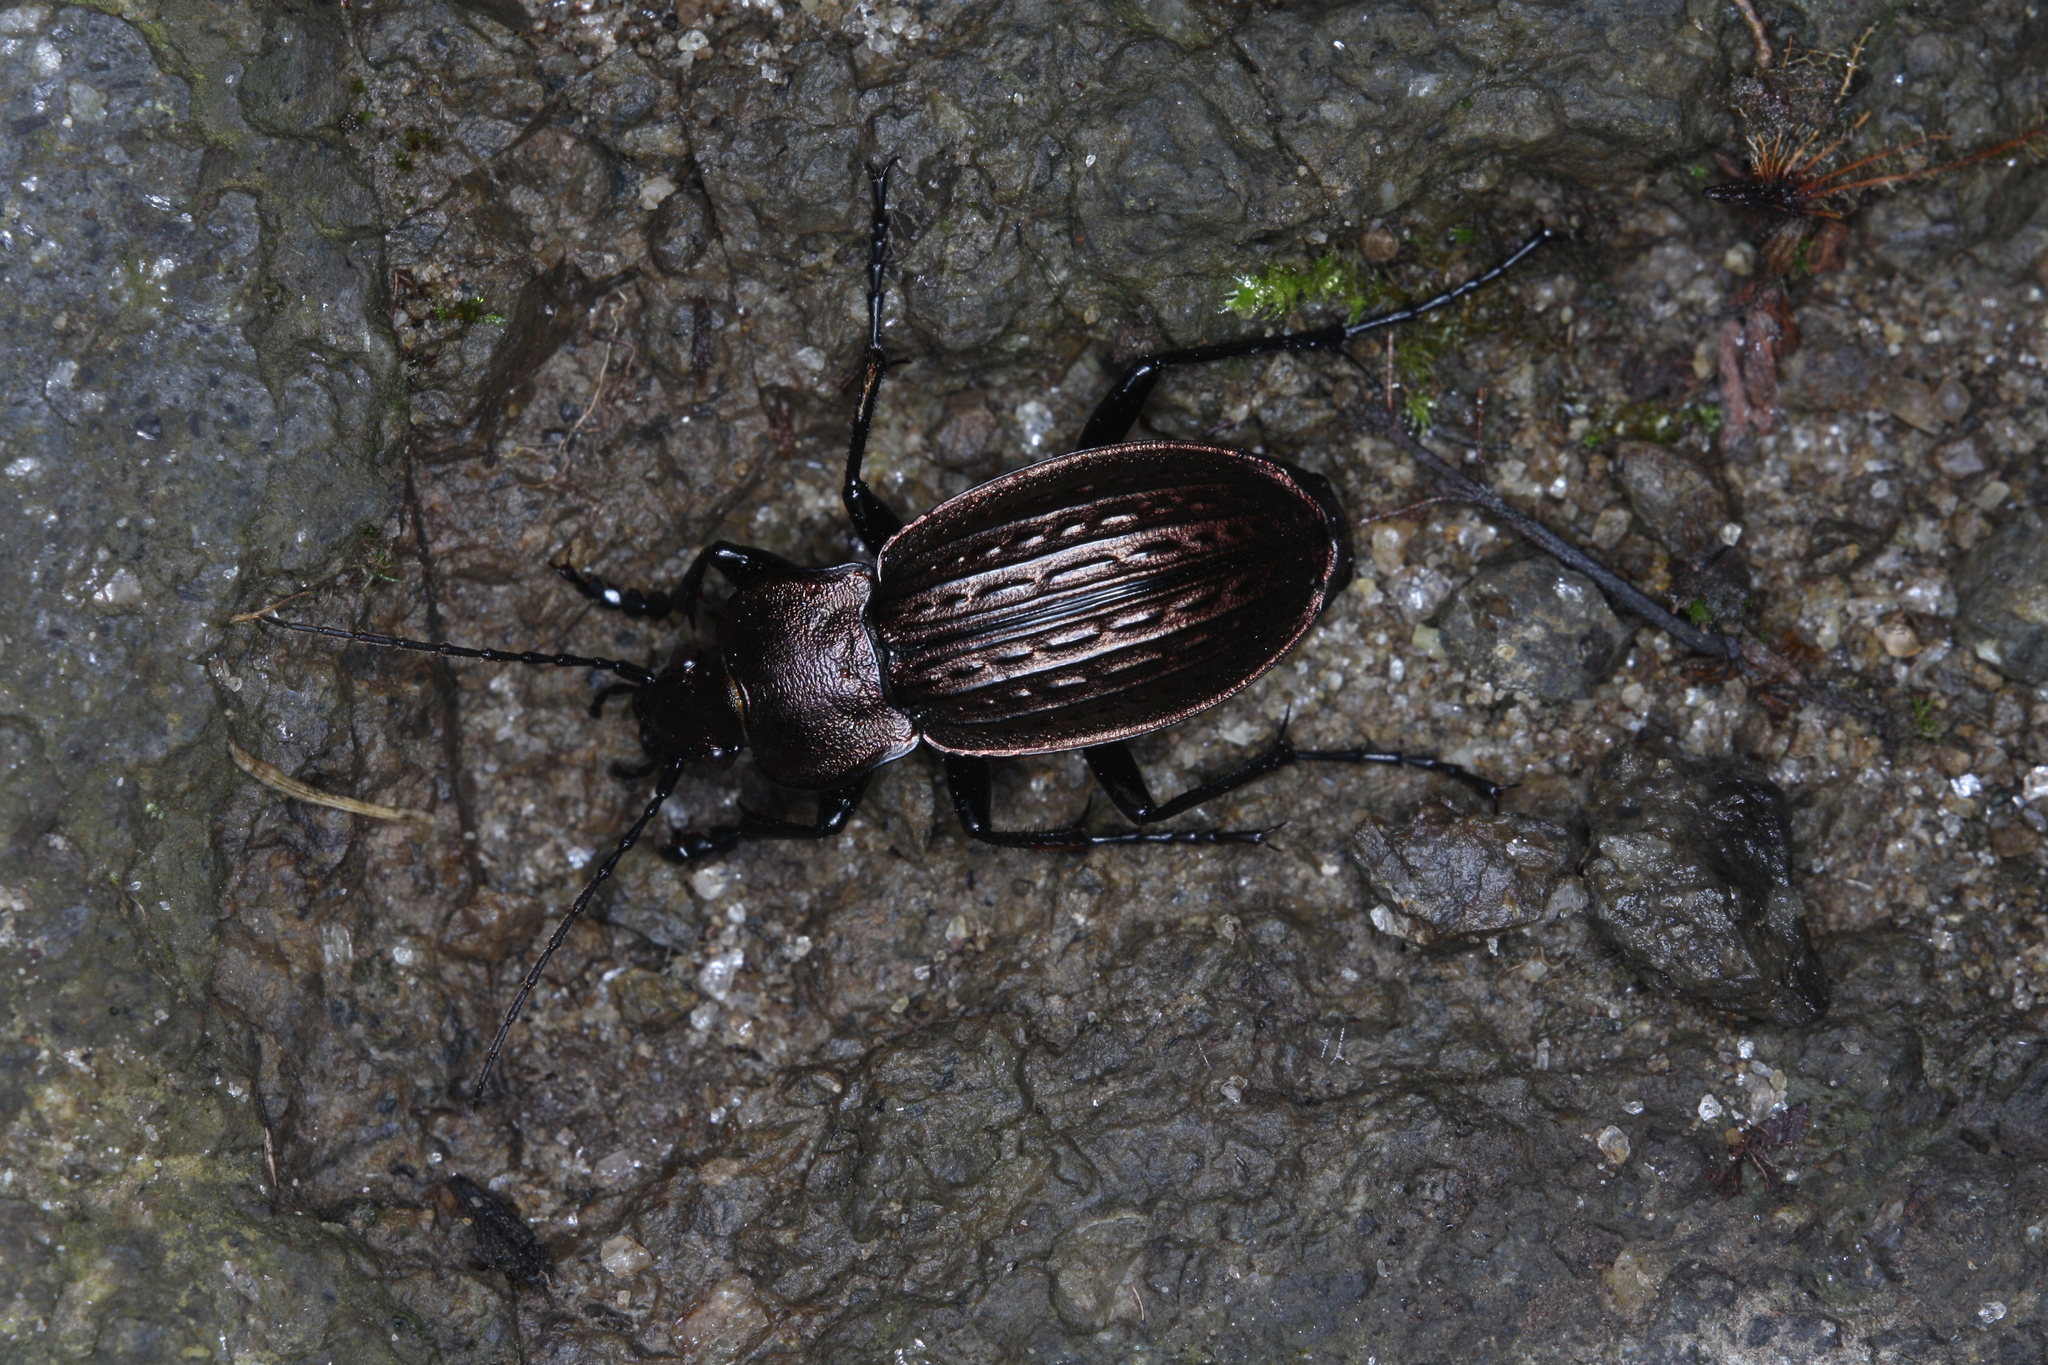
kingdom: Animalia
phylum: Arthropoda
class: Insecta
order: Coleoptera
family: Carabidae
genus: Carabus
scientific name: Carabus ulrichii
